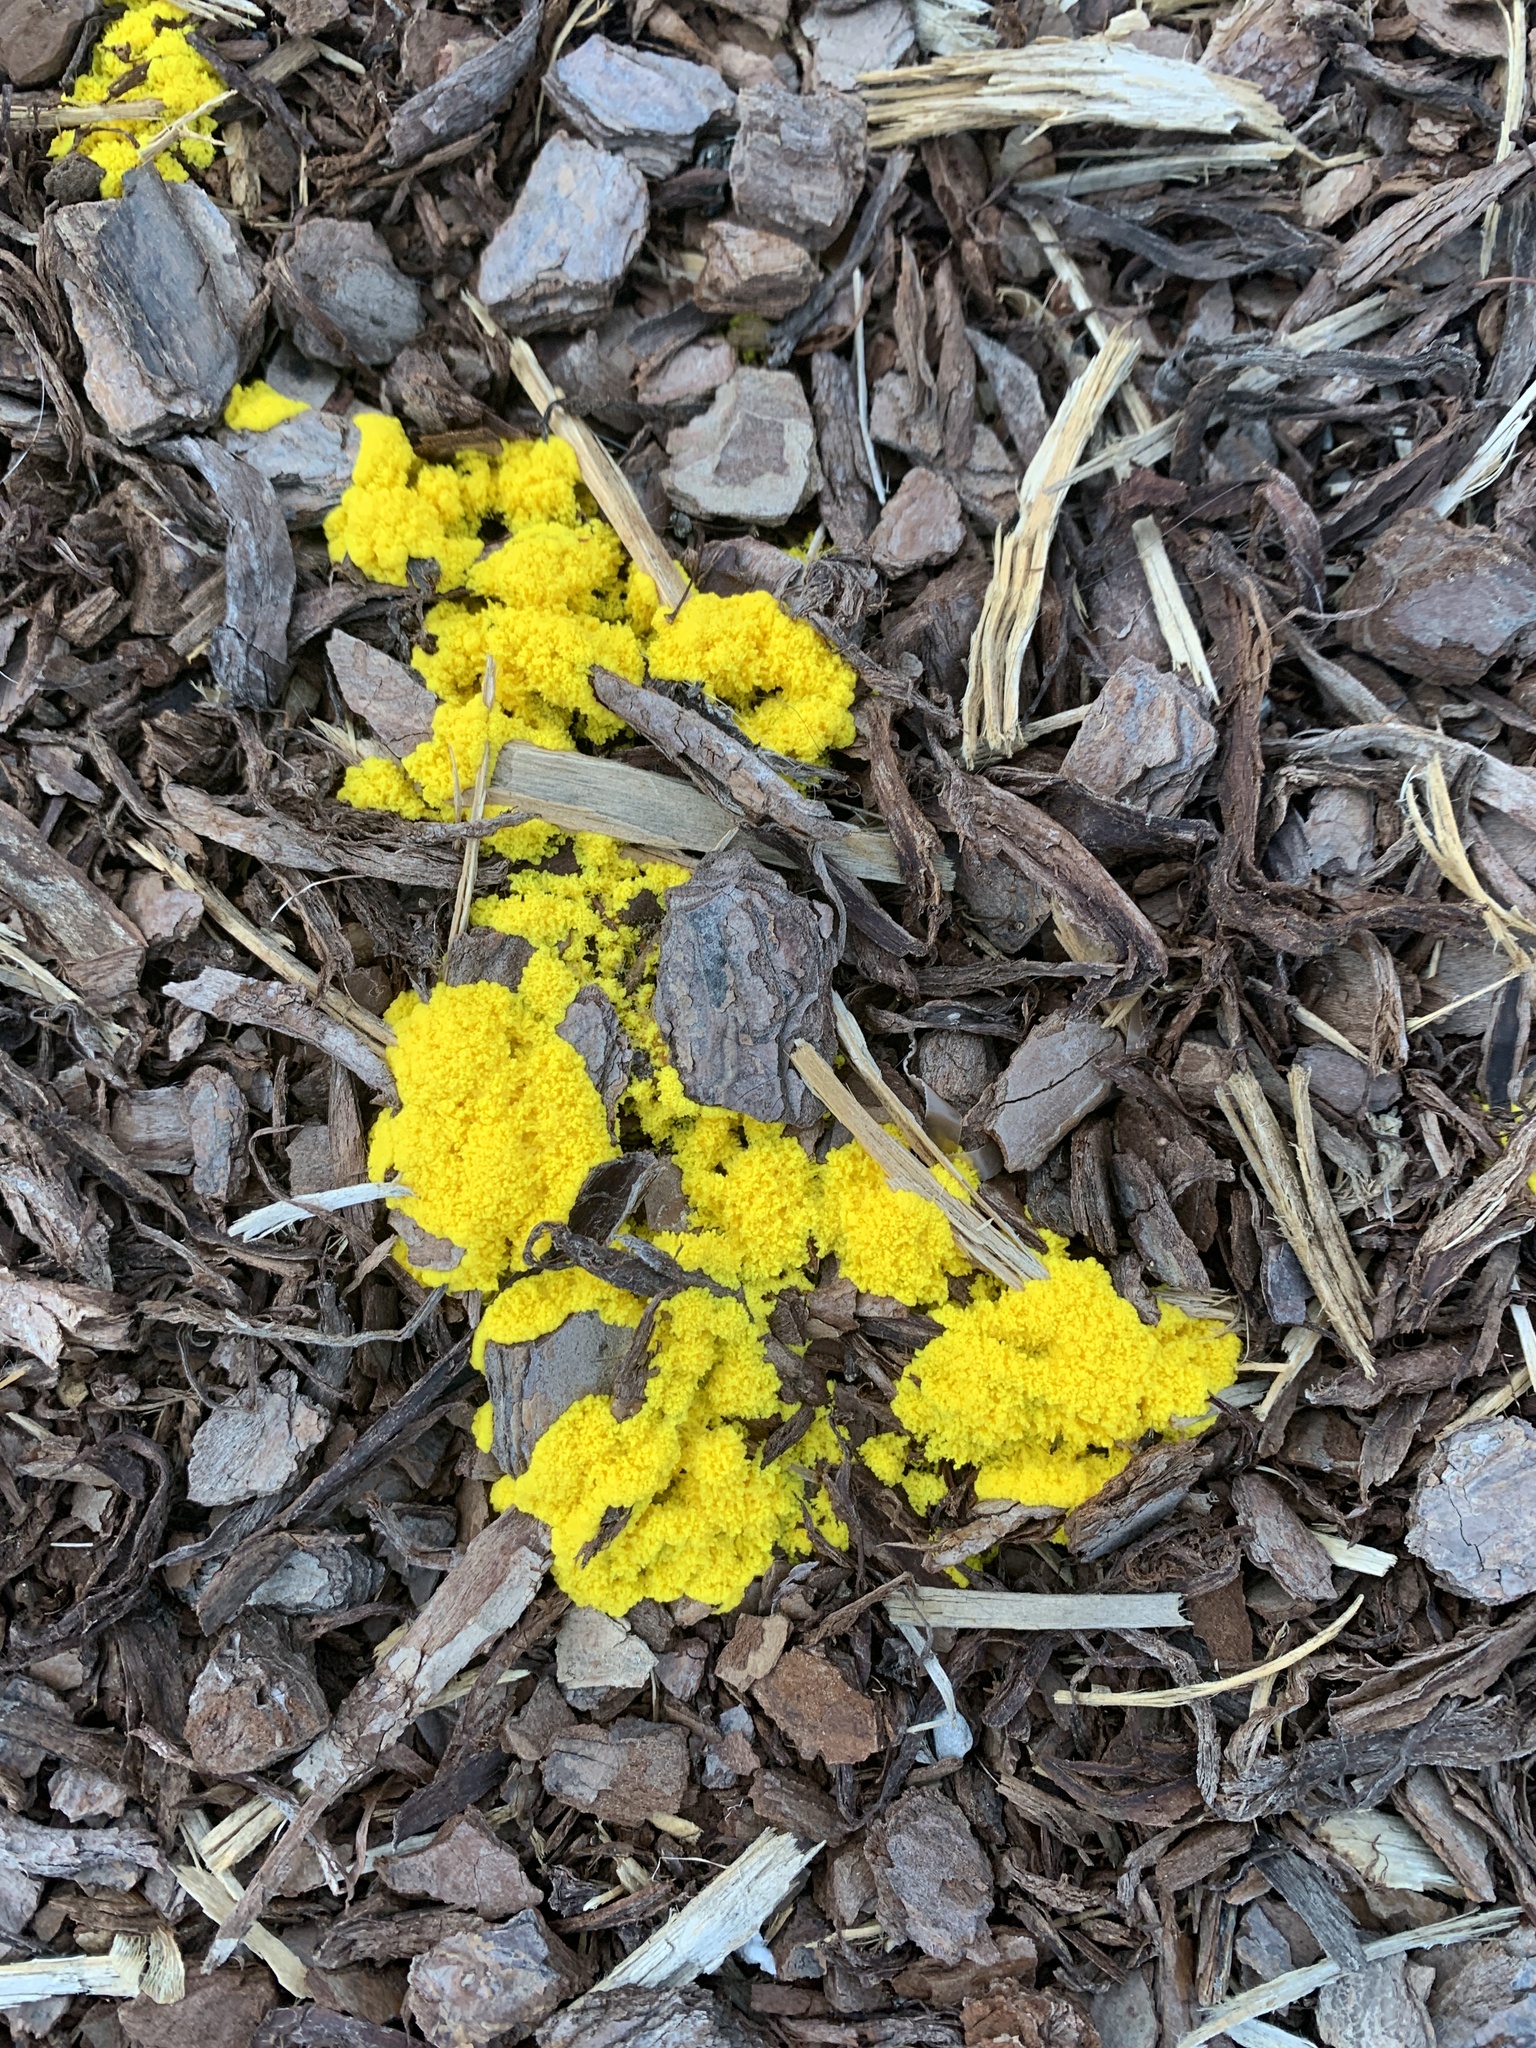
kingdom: Protozoa
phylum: Mycetozoa
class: Myxomycetes
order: Physarales
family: Physaraceae
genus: Fuligo
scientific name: Fuligo septica
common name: Dog vomit slime mold
